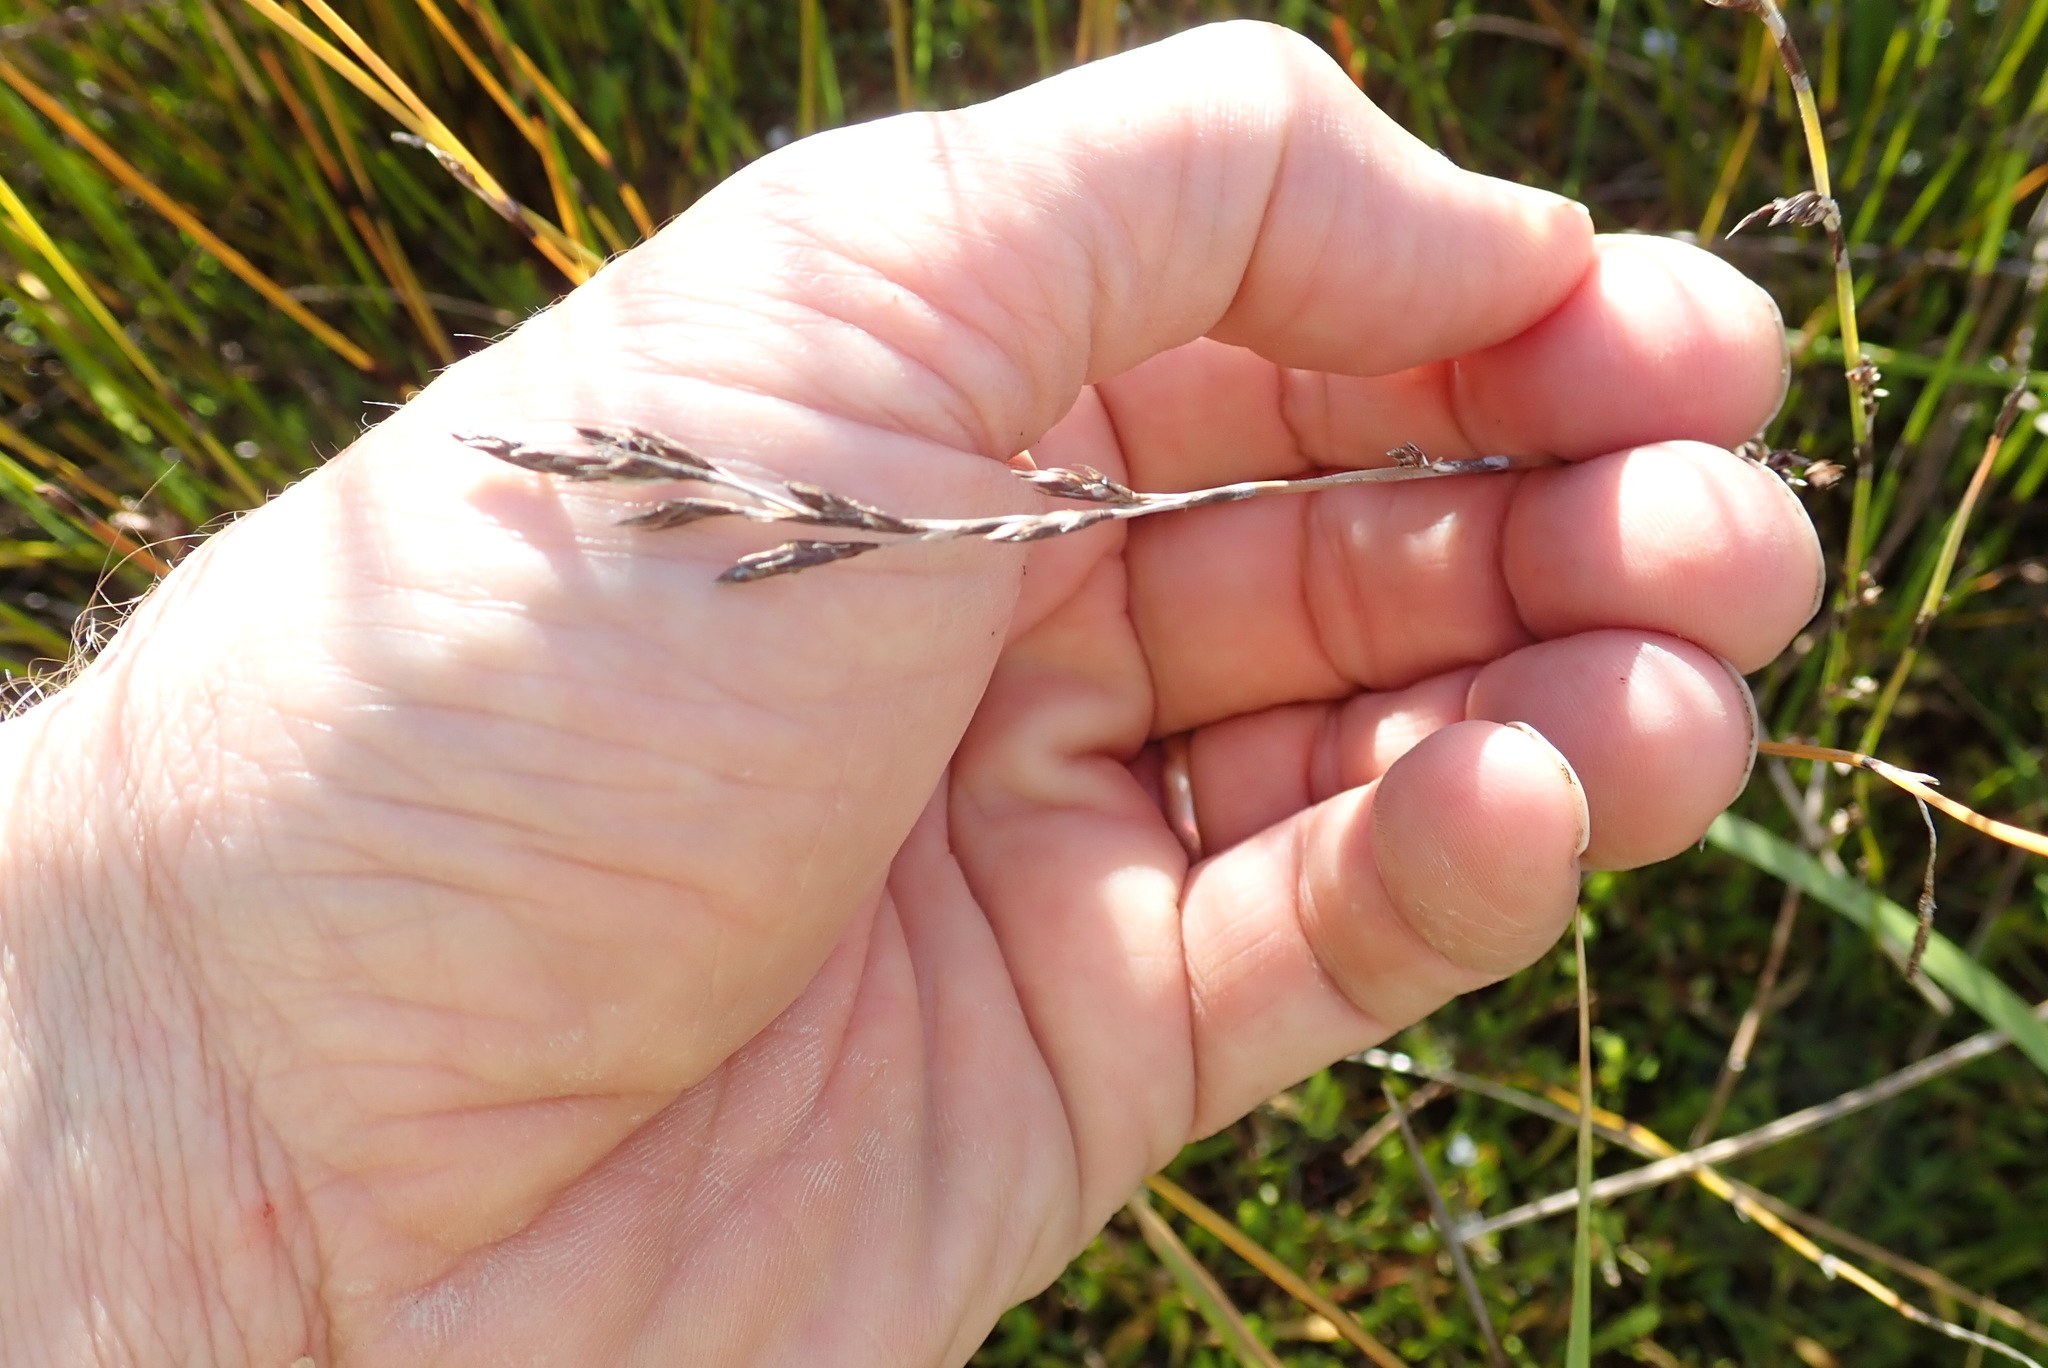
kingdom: Plantae
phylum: Tracheophyta
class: Liliopsida
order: Poales
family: Restionaceae
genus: Apodasmia
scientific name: Apodasmia similis
